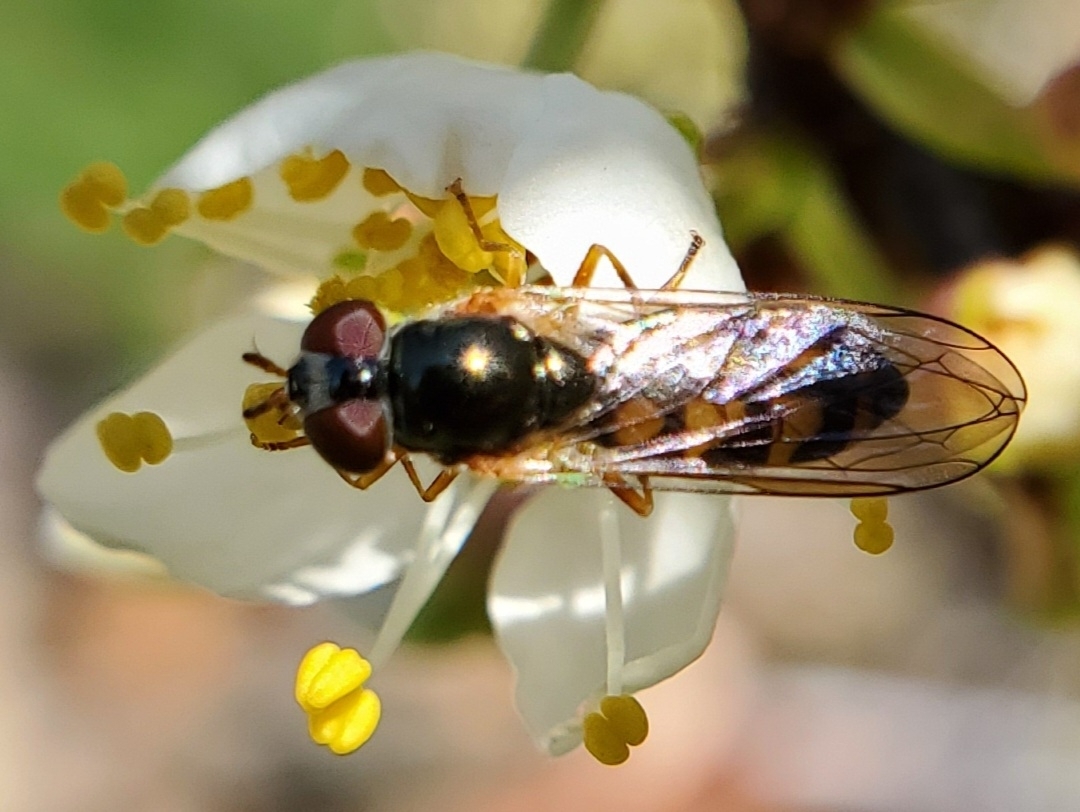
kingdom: Animalia
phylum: Arthropoda
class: Insecta
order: Diptera
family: Syrphidae
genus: Melanostoma
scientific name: Melanostoma mellina
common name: Hover fly
